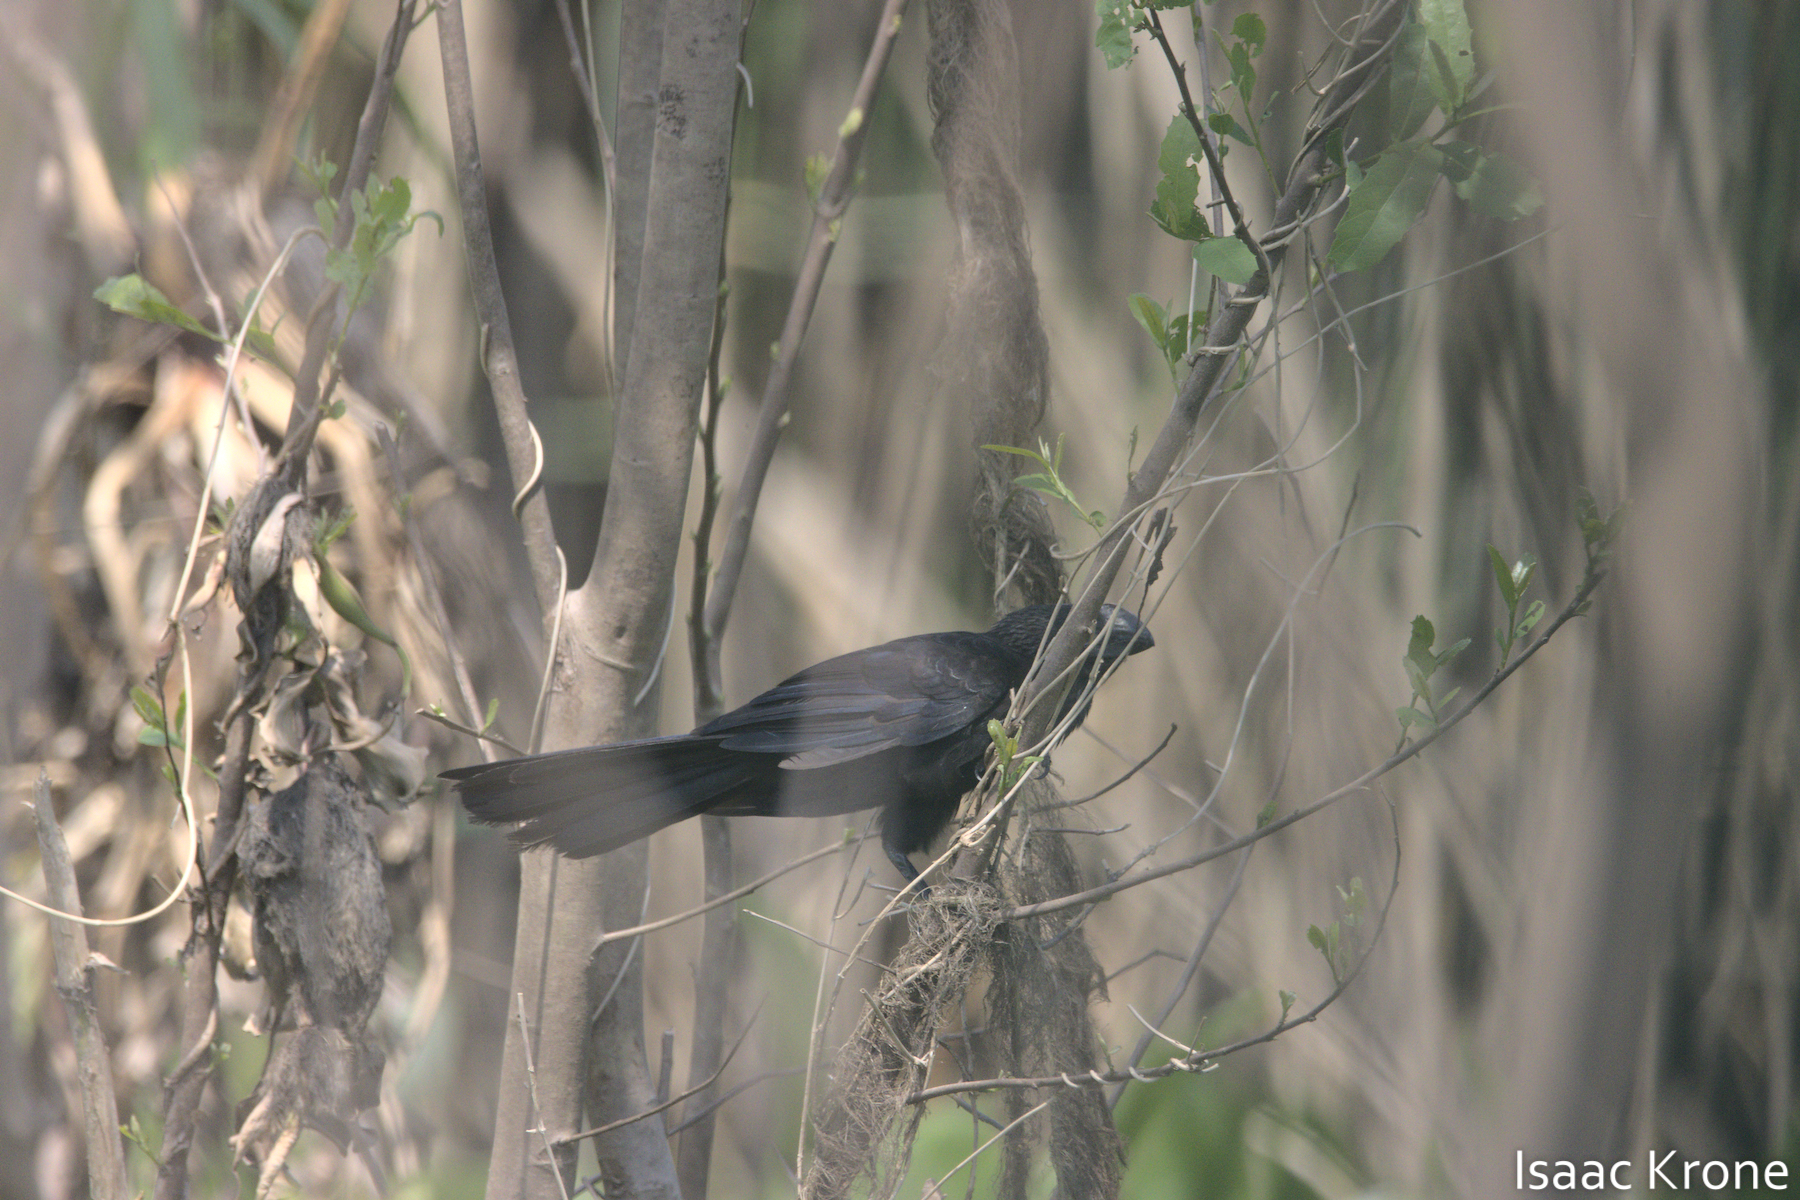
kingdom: Animalia
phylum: Chordata
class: Aves
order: Cuculiformes
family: Cuculidae
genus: Crotophaga
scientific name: Crotophaga ani
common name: Smooth-billed ani
